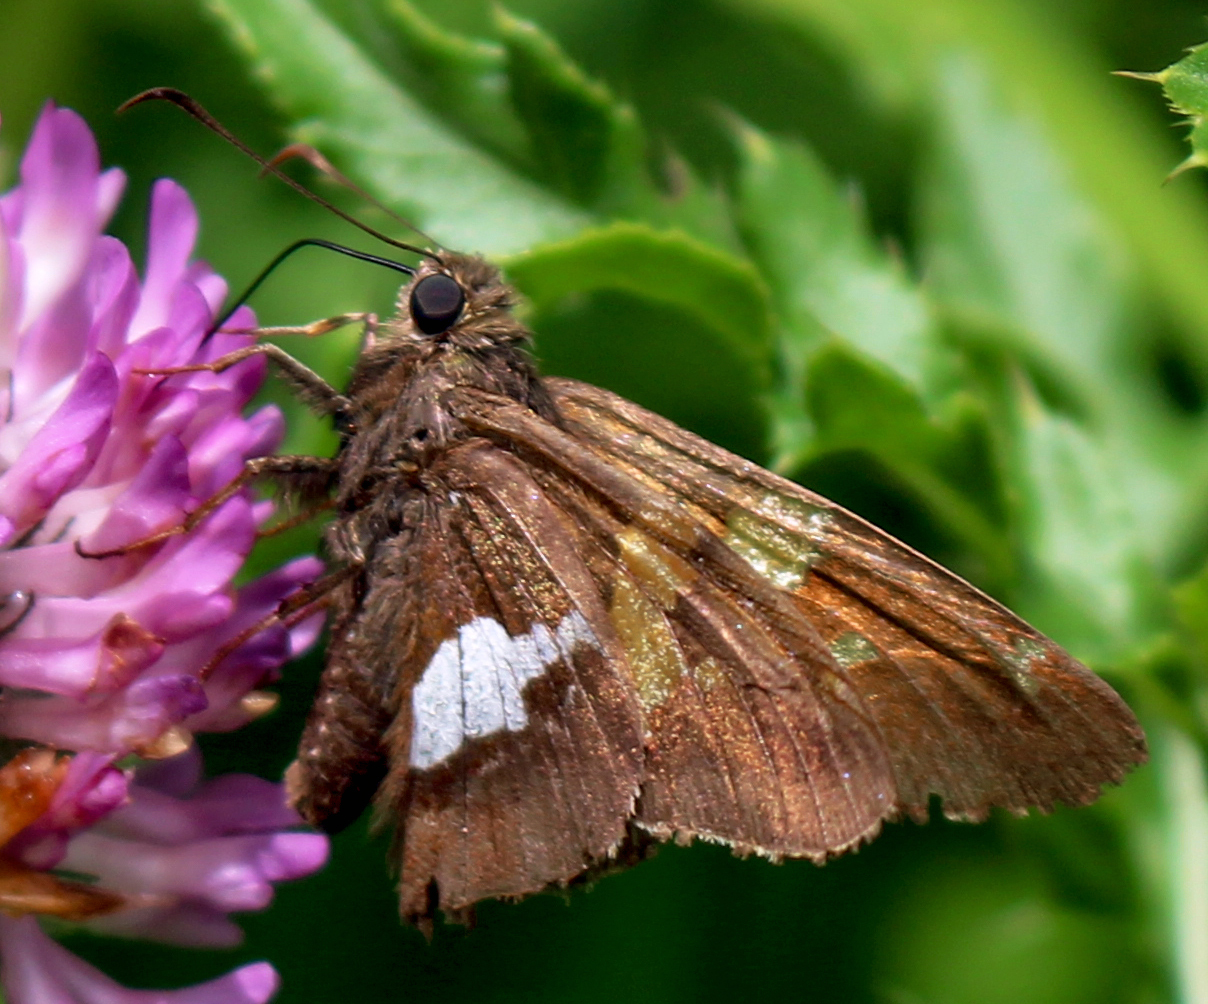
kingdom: Animalia
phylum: Arthropoda
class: Insecta
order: Lepidoptera
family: Hesperiidae
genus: Epargyreus
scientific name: Epargyreus clarus
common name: Silver-spotted skipper
